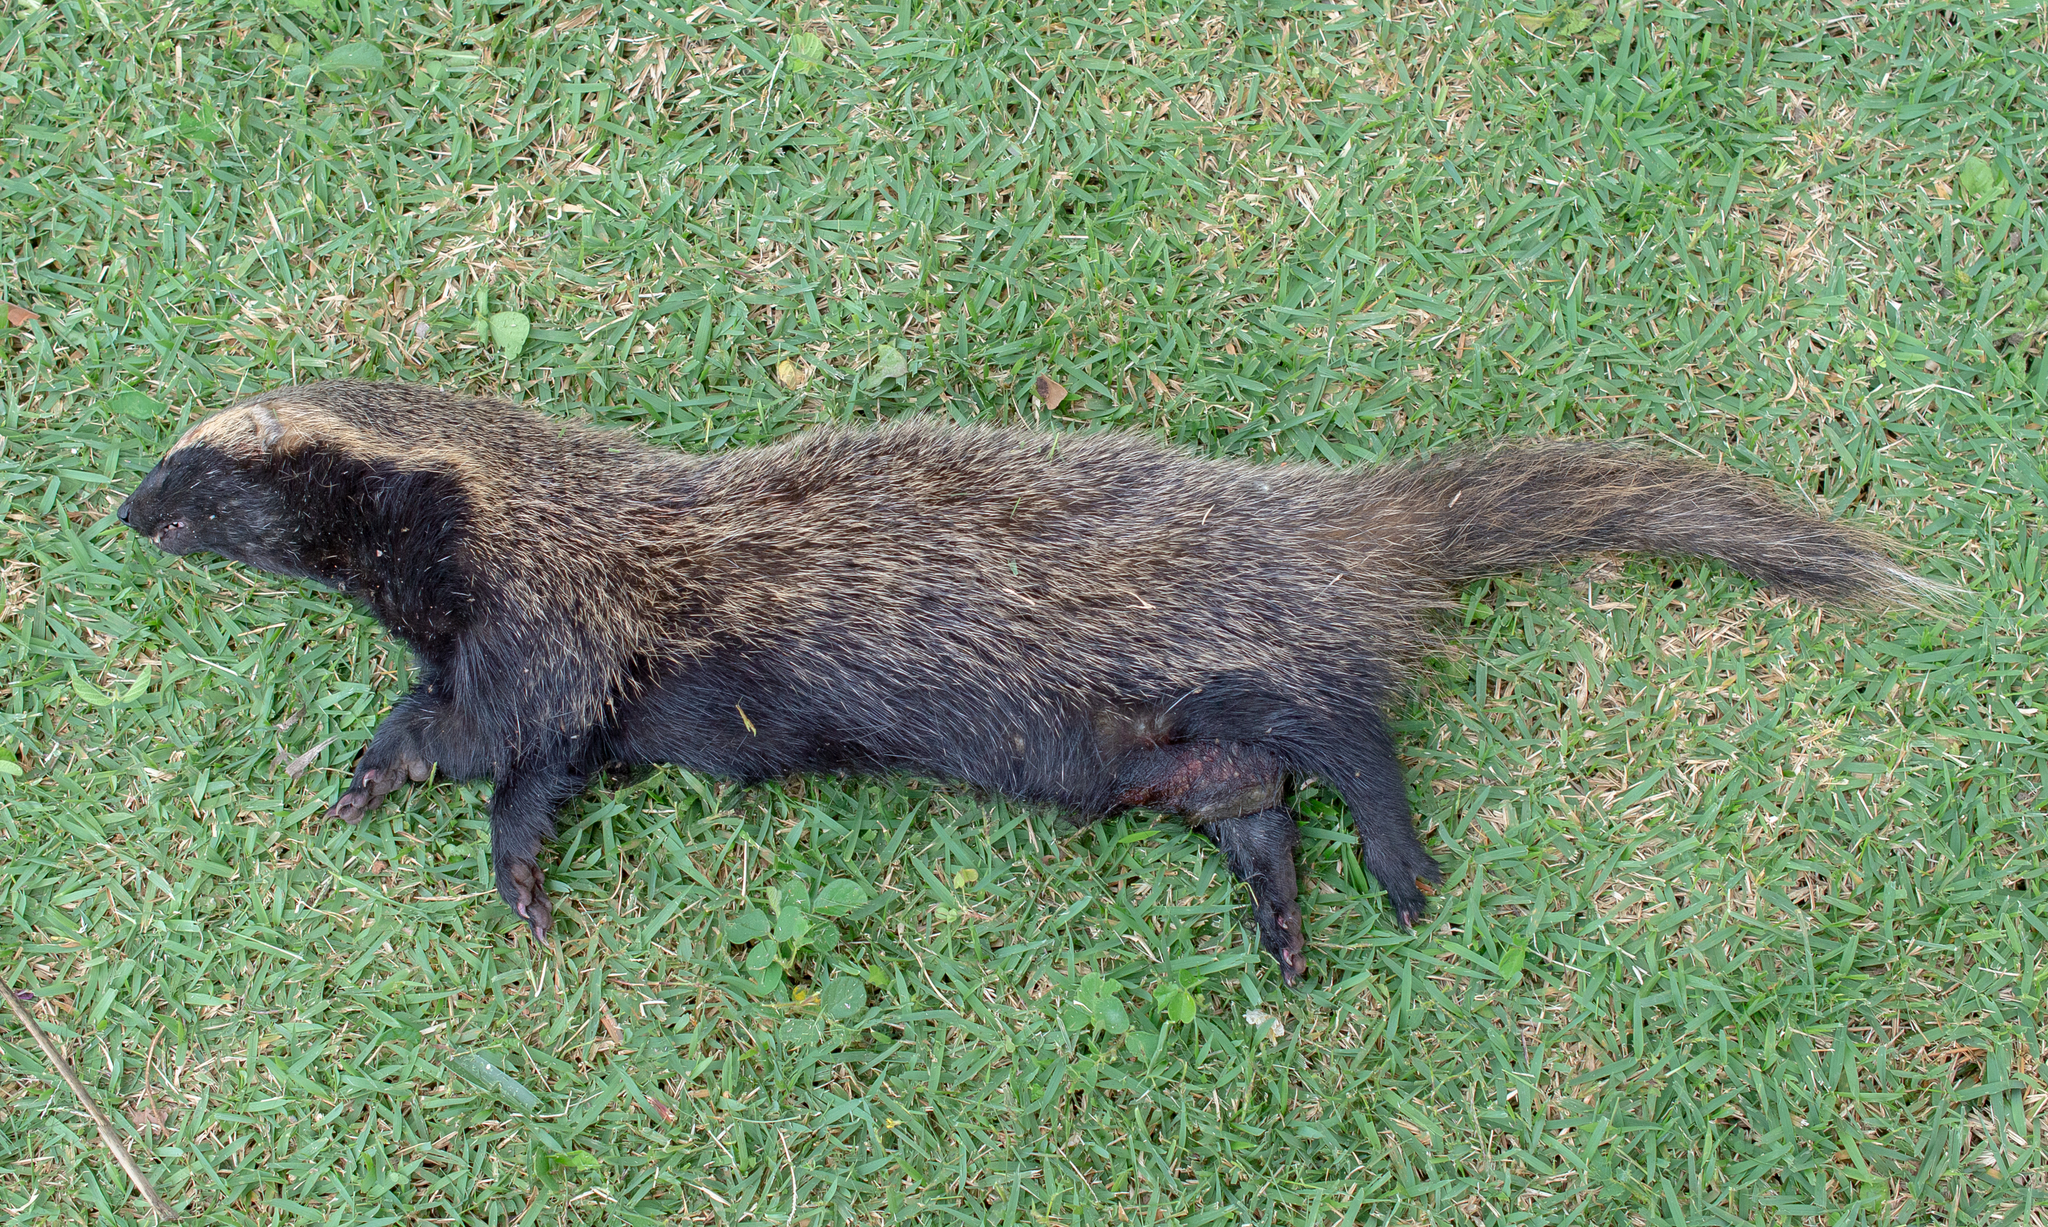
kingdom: Animalia
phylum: Chordata
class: Mammalia
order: Carnivora
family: Mustelidae
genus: Galictis
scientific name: Galictis cuja
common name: Lesser grison
